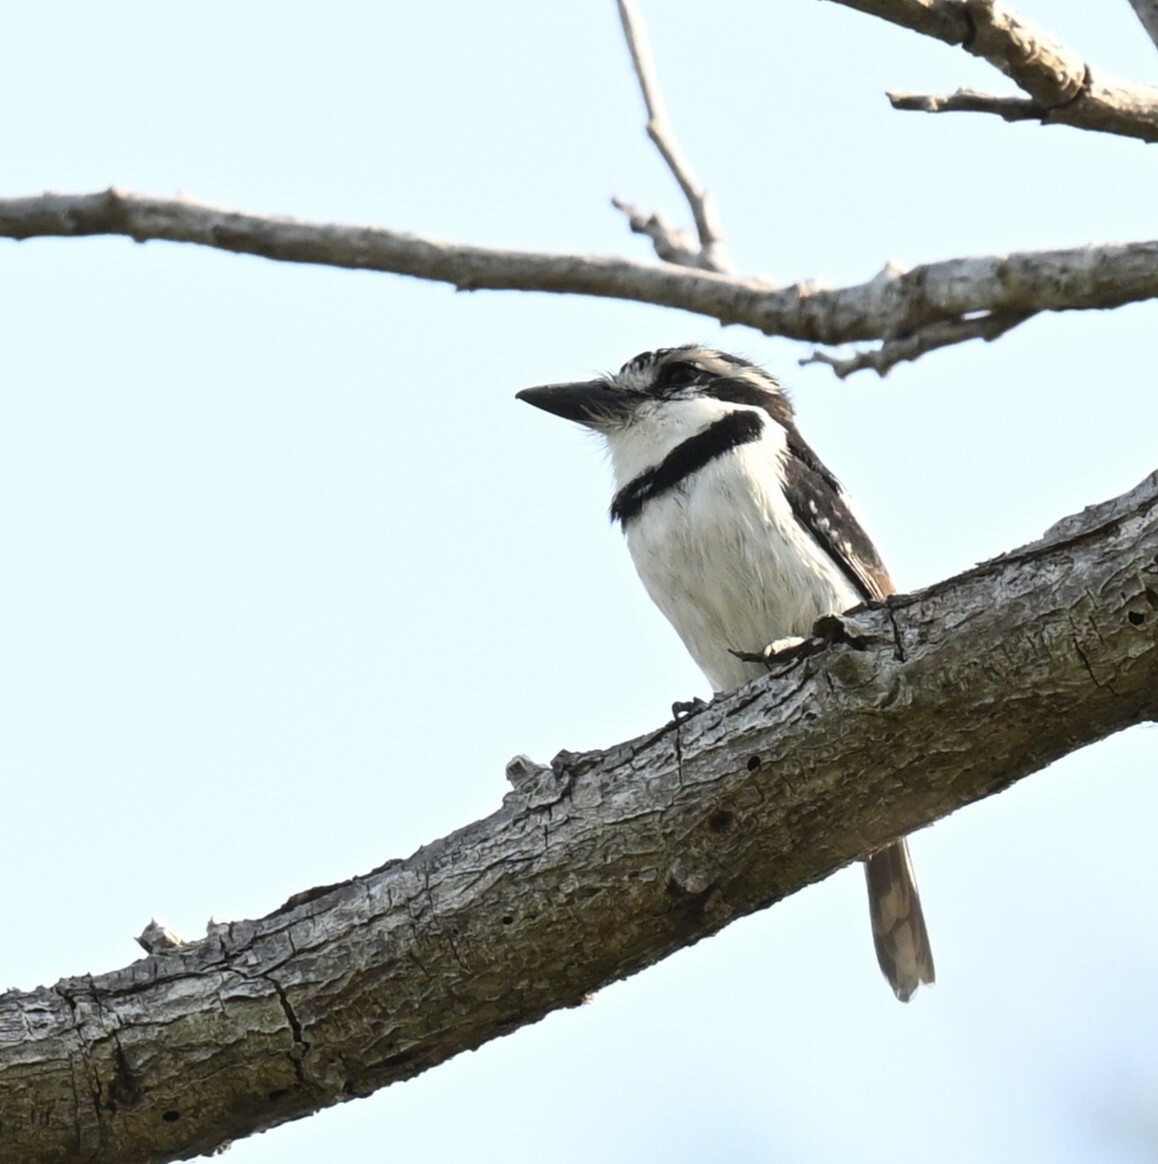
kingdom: Animalia
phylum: Chordata
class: Aves
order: Piciformes
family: Bucconidae
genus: Notharchus
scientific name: Notharchus tectus
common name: Pied puffbird
